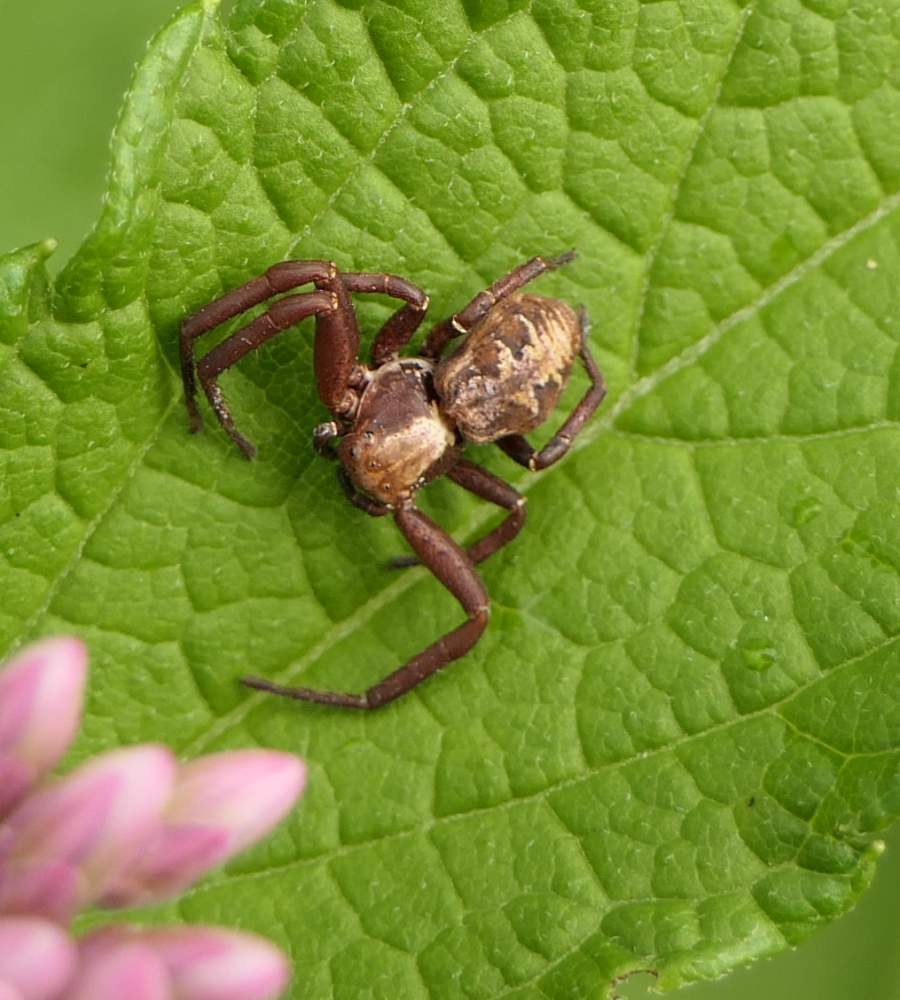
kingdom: Animalia
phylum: Arthropoda
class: Arachnida
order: Araneae
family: Thomisidae
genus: Xysticus
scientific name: Xysticus punctatus
